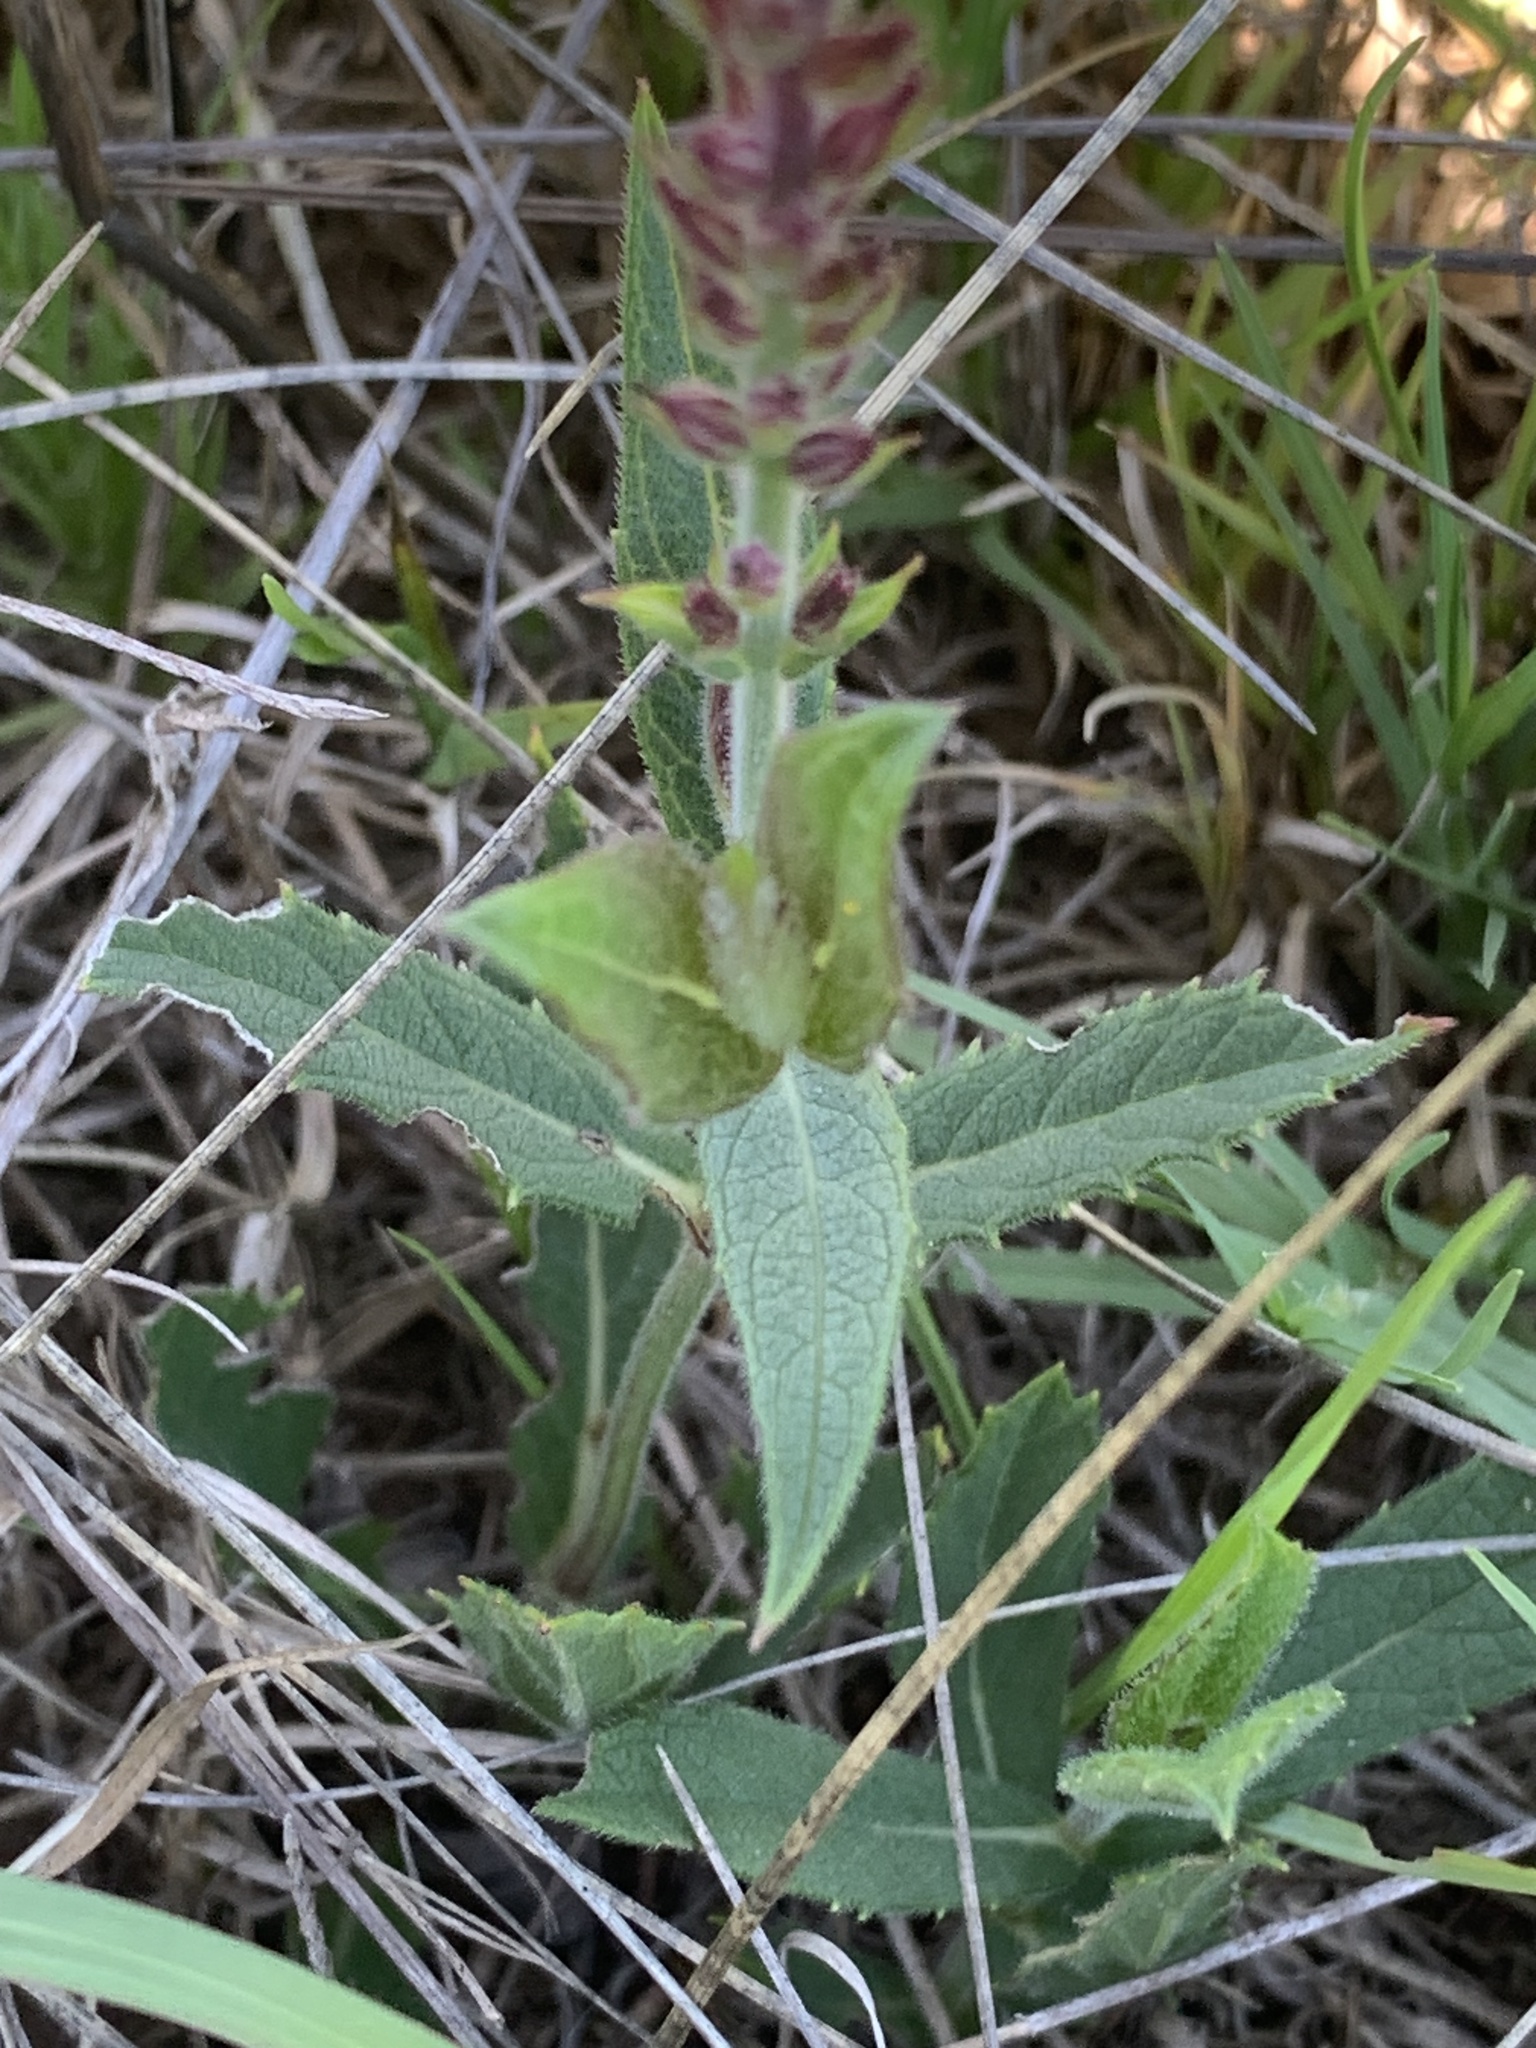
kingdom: Plantae
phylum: Tracheophyta
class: Magnoliopsida
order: Lamiales
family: Verbenaceae
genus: Verbena
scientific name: Verbena rigida
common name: Slender vervain
